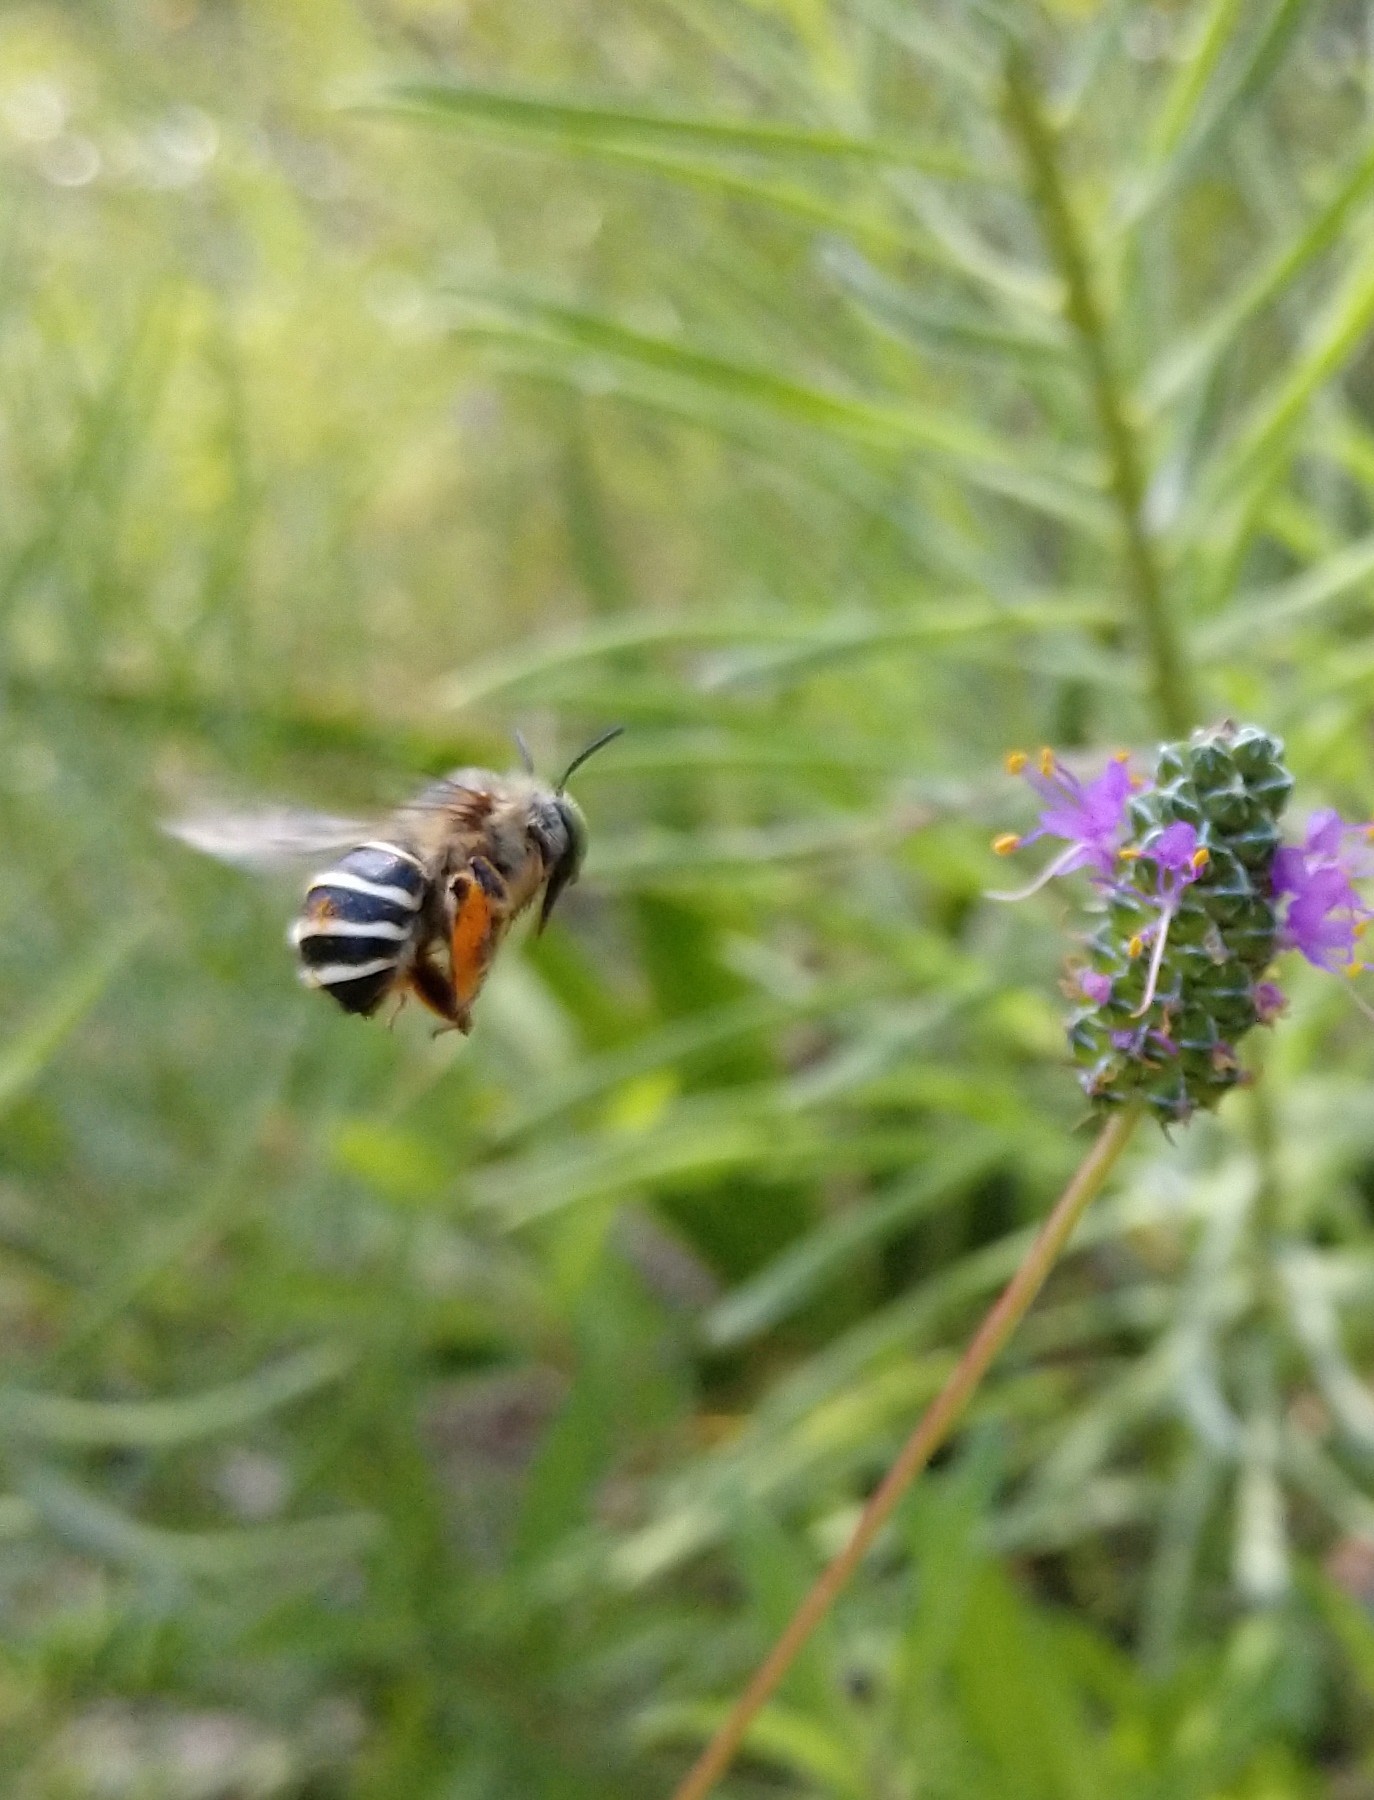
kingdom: Animalia
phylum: Arthropoda
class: Insecta
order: Hymenoptera
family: Apidae
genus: Anthophora
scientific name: Anthophora californica
